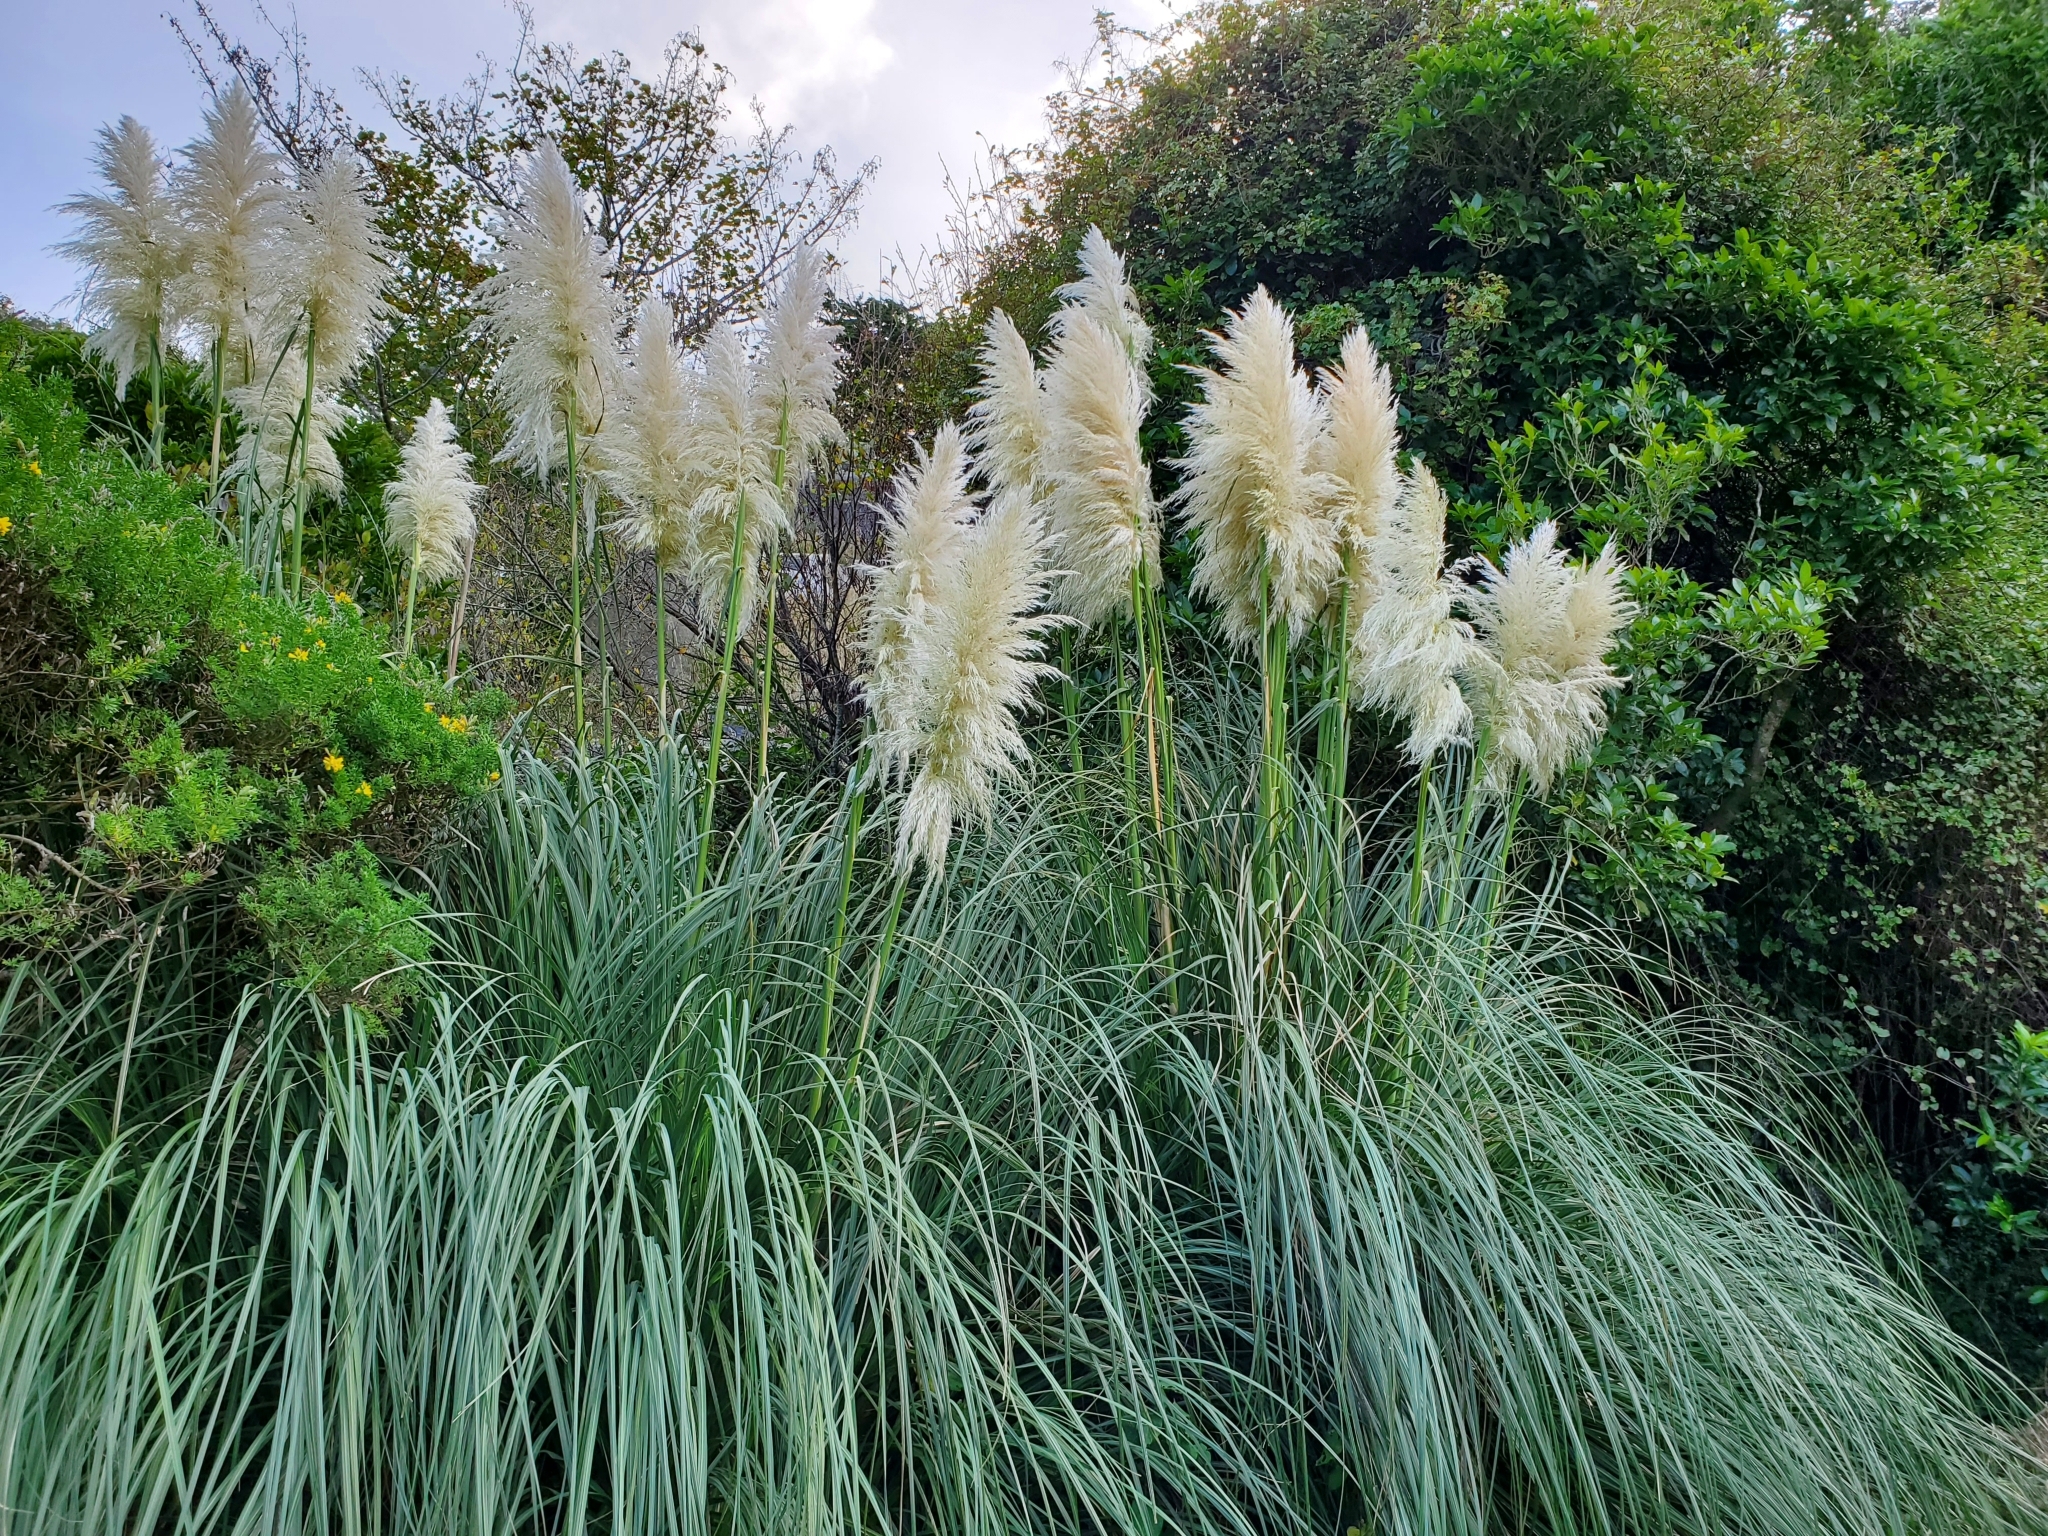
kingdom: Plantae
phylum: Tracheophyta
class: Liliopsida
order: Poales
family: Poaceae
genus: Cortaderia
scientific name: Cortaderia selloana
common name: Uruguayan pampas grass
